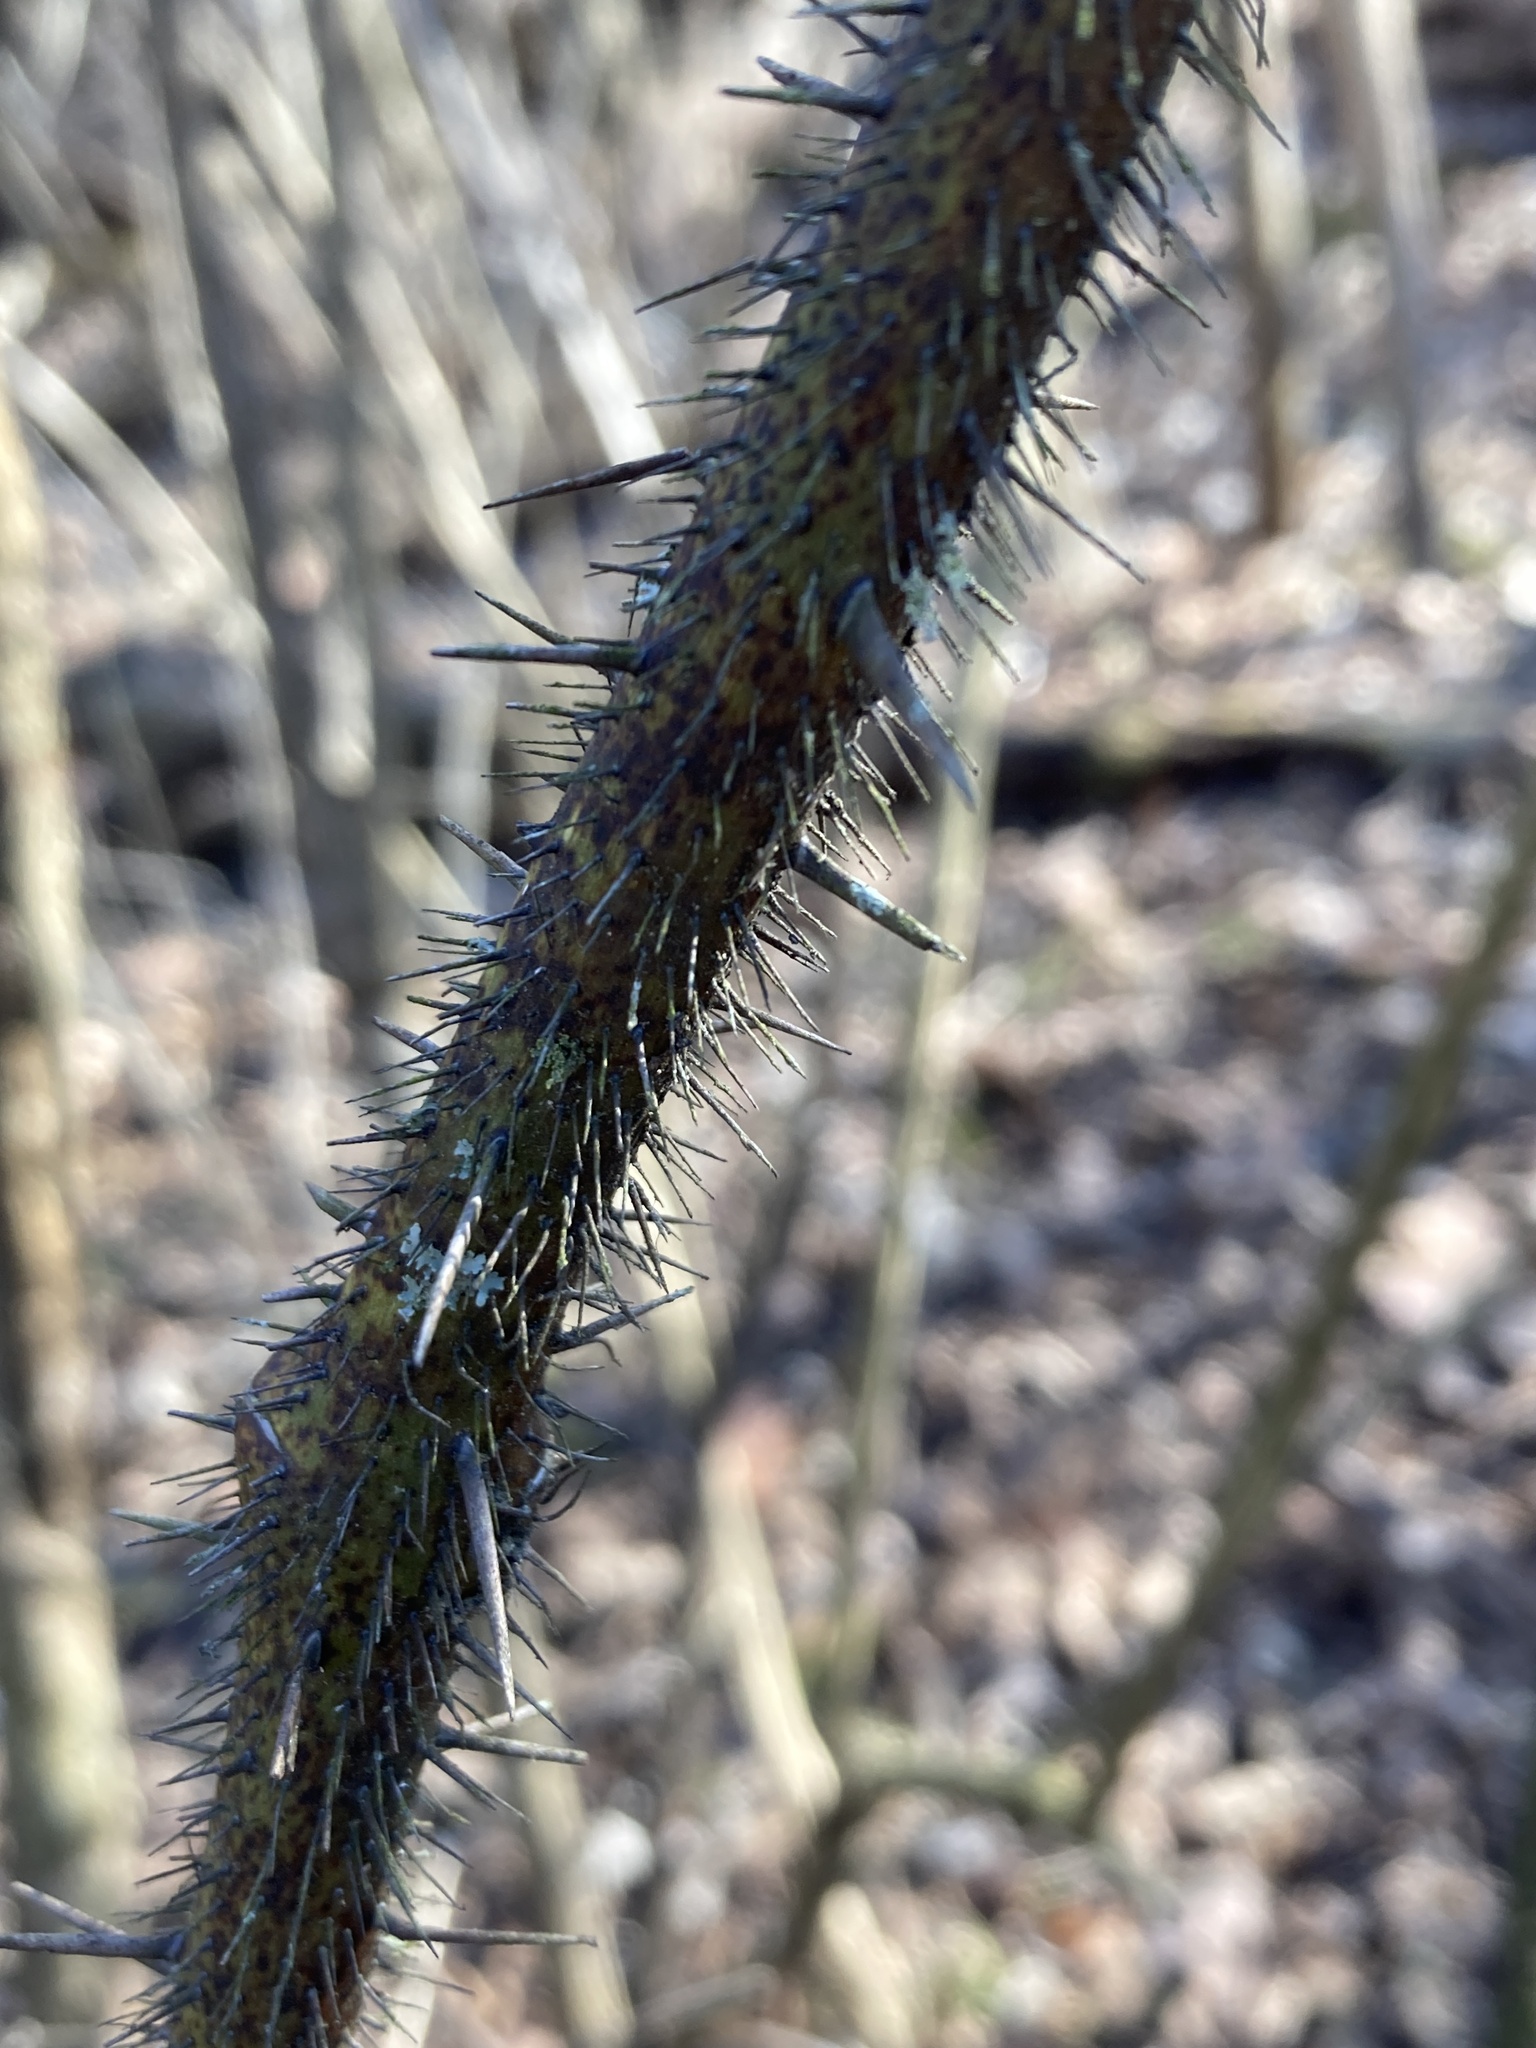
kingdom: Plantae
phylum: Tracheophyta
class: Liliopsida
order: Liliales
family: Smilacaceae
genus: Smilax
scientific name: Smilax tamnoides
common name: Hellfetter
